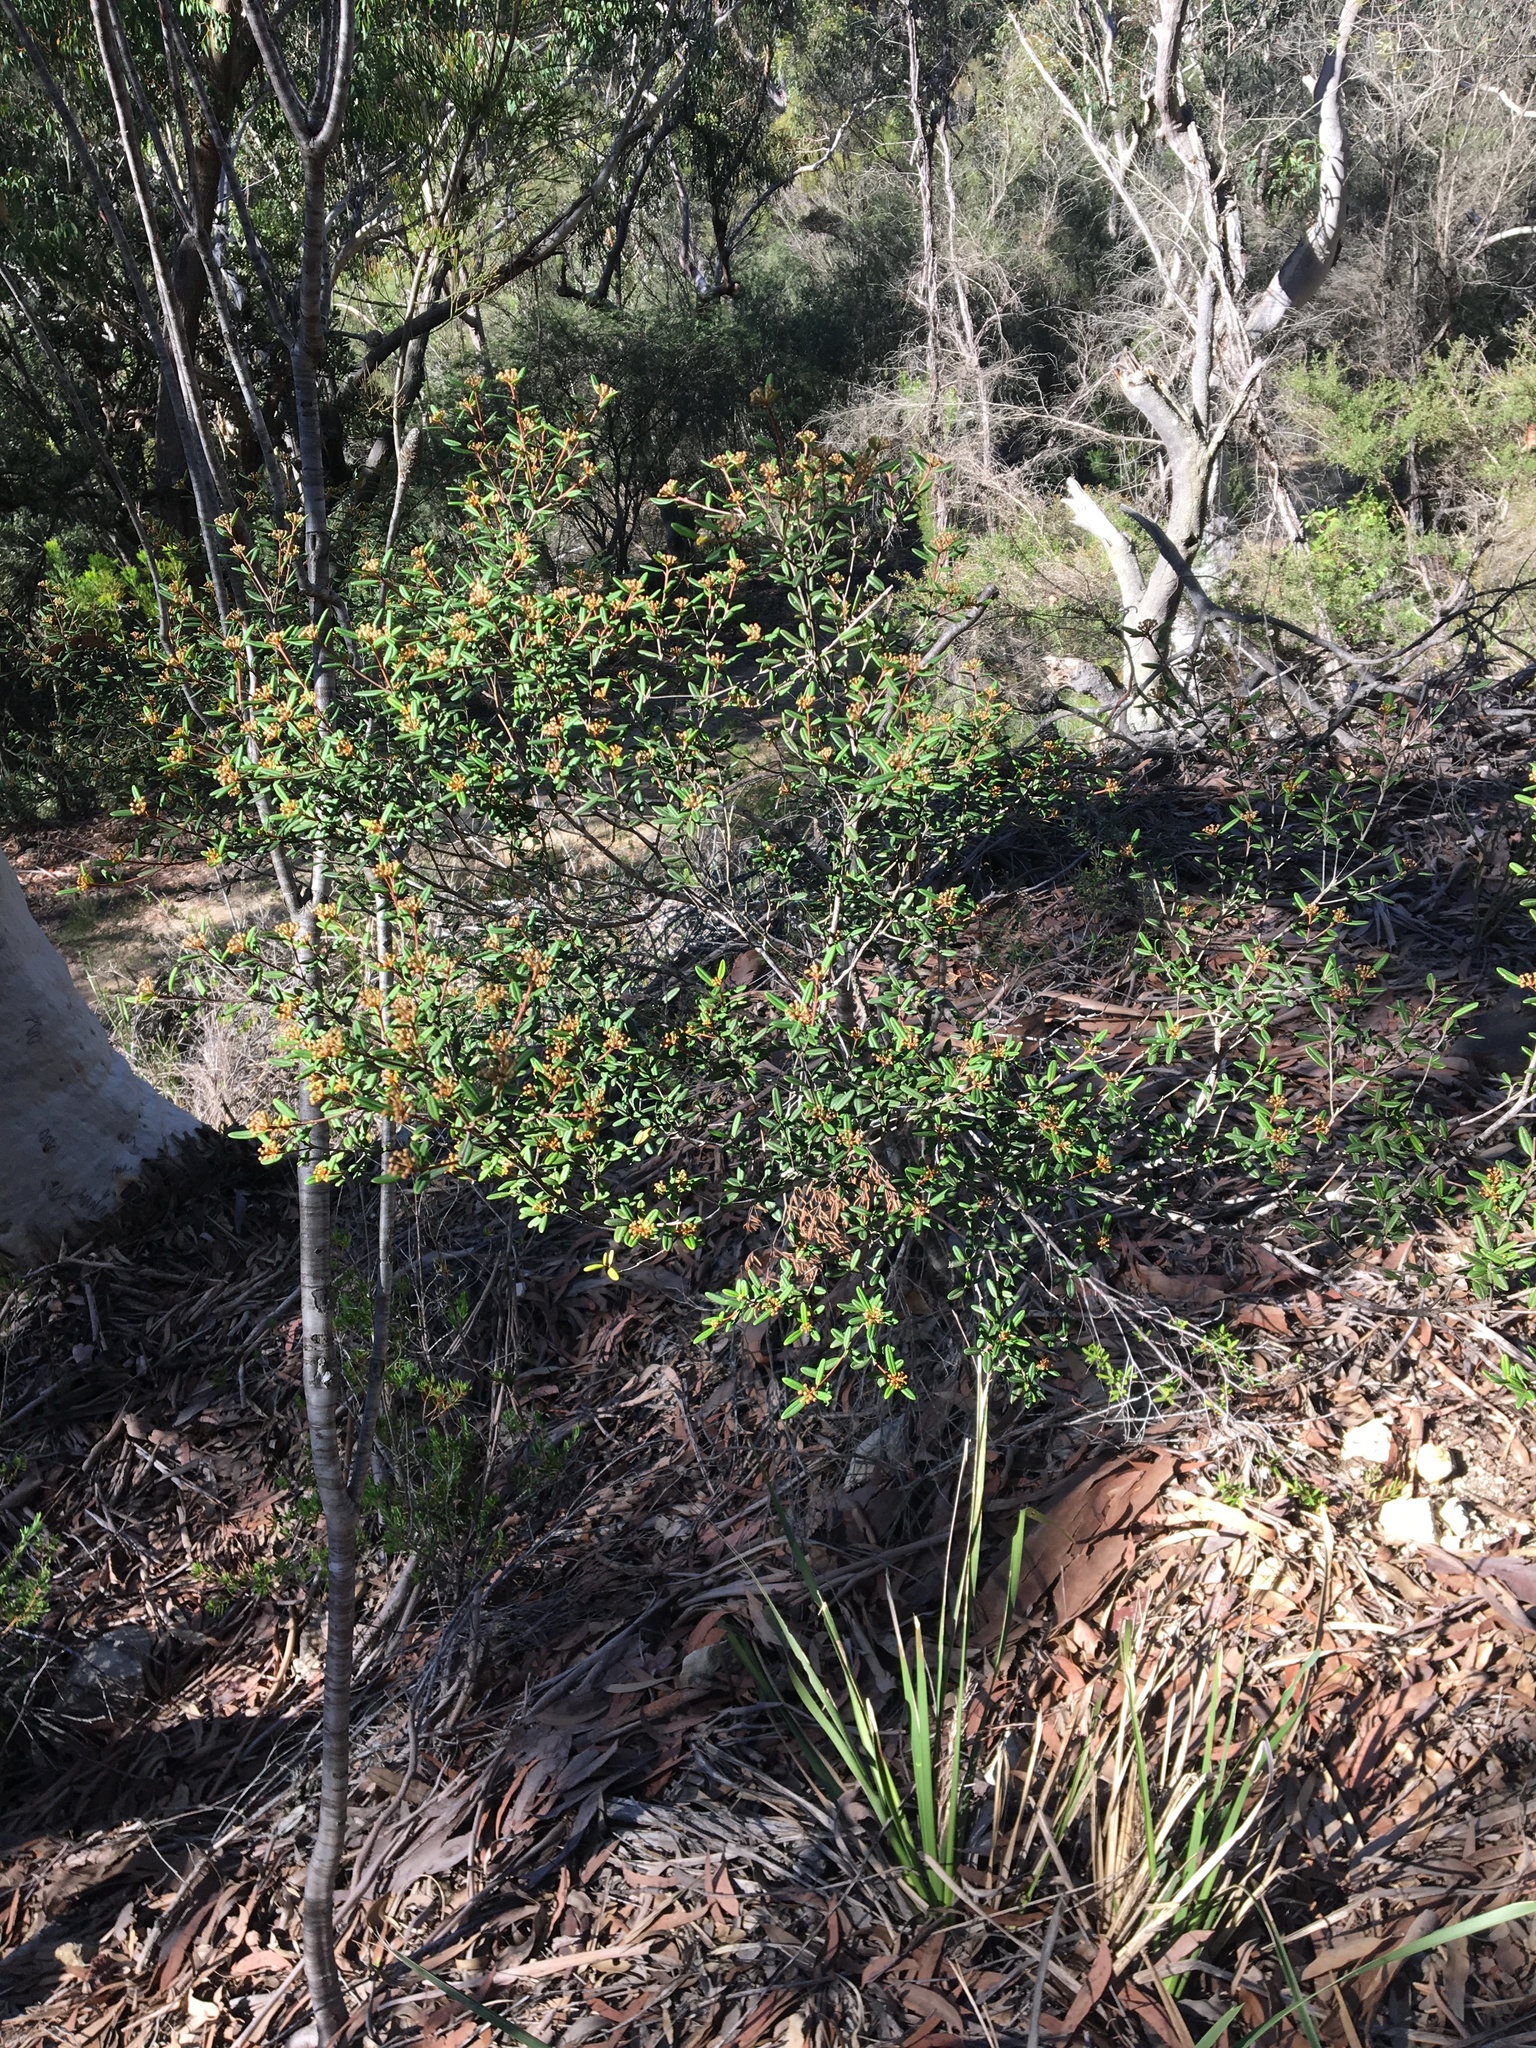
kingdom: Plantae
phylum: Tracheophyta
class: Magnoliopsida
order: Sapindales
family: Rutaceae
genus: Phebalium
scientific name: Phebalium squamulosum
